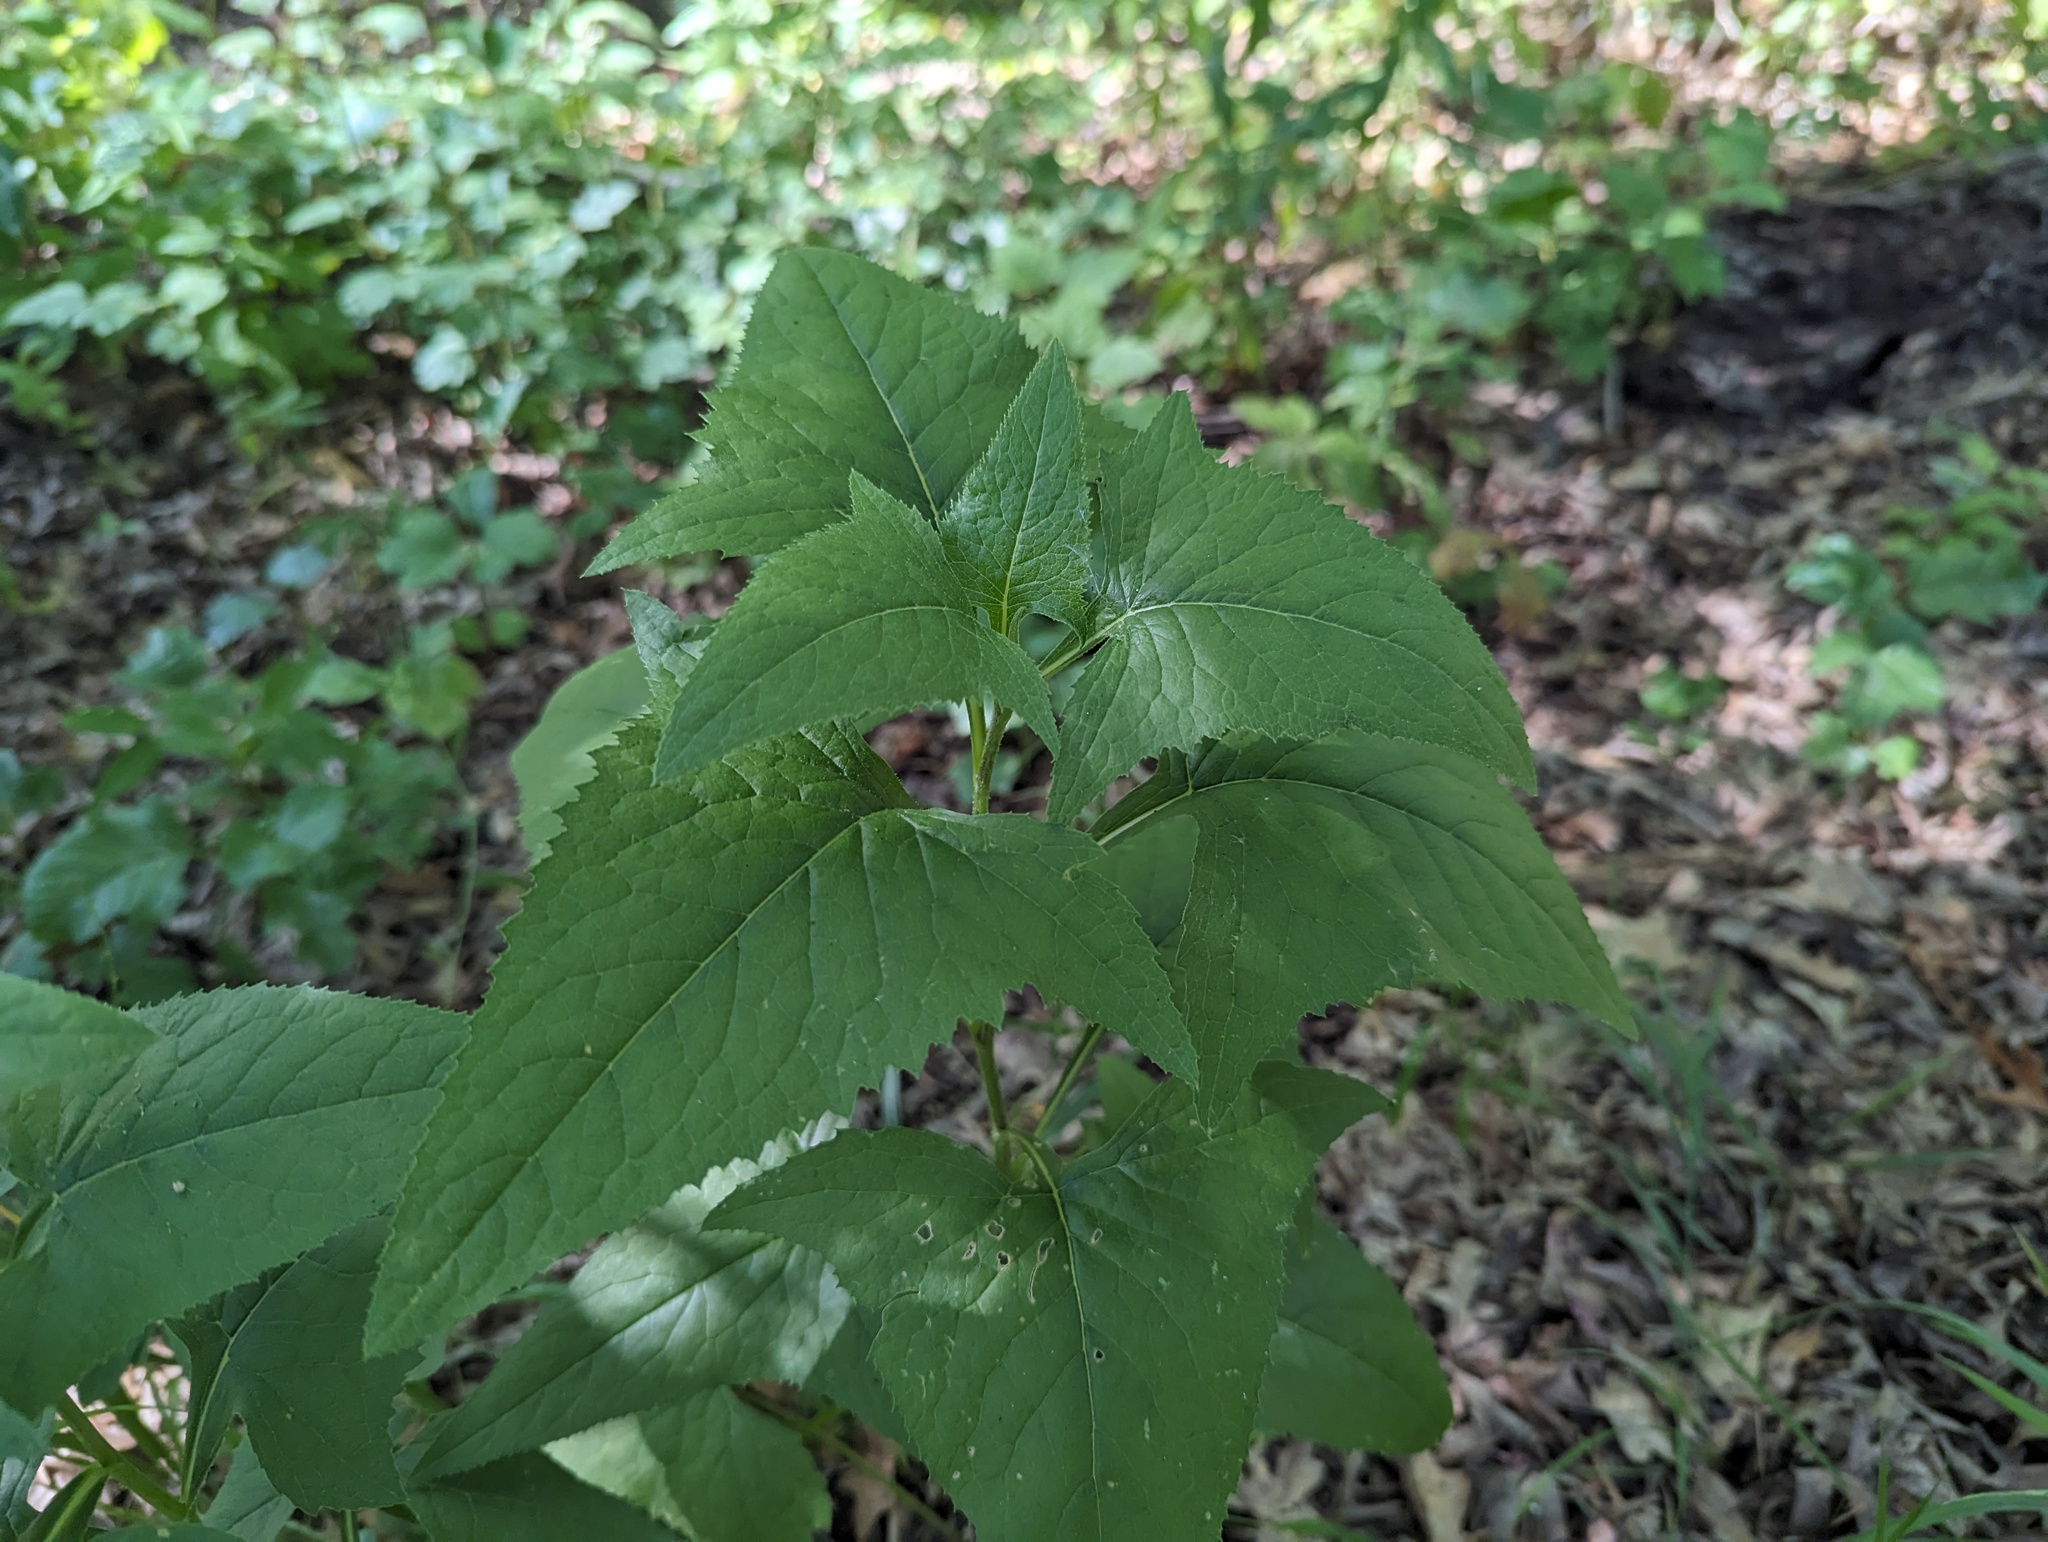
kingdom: Plantae
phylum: Tracheophyta
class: Magnoliopsida
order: Asterales
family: Asteraceae
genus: Hasteola
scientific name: Hasteola suaveolens
